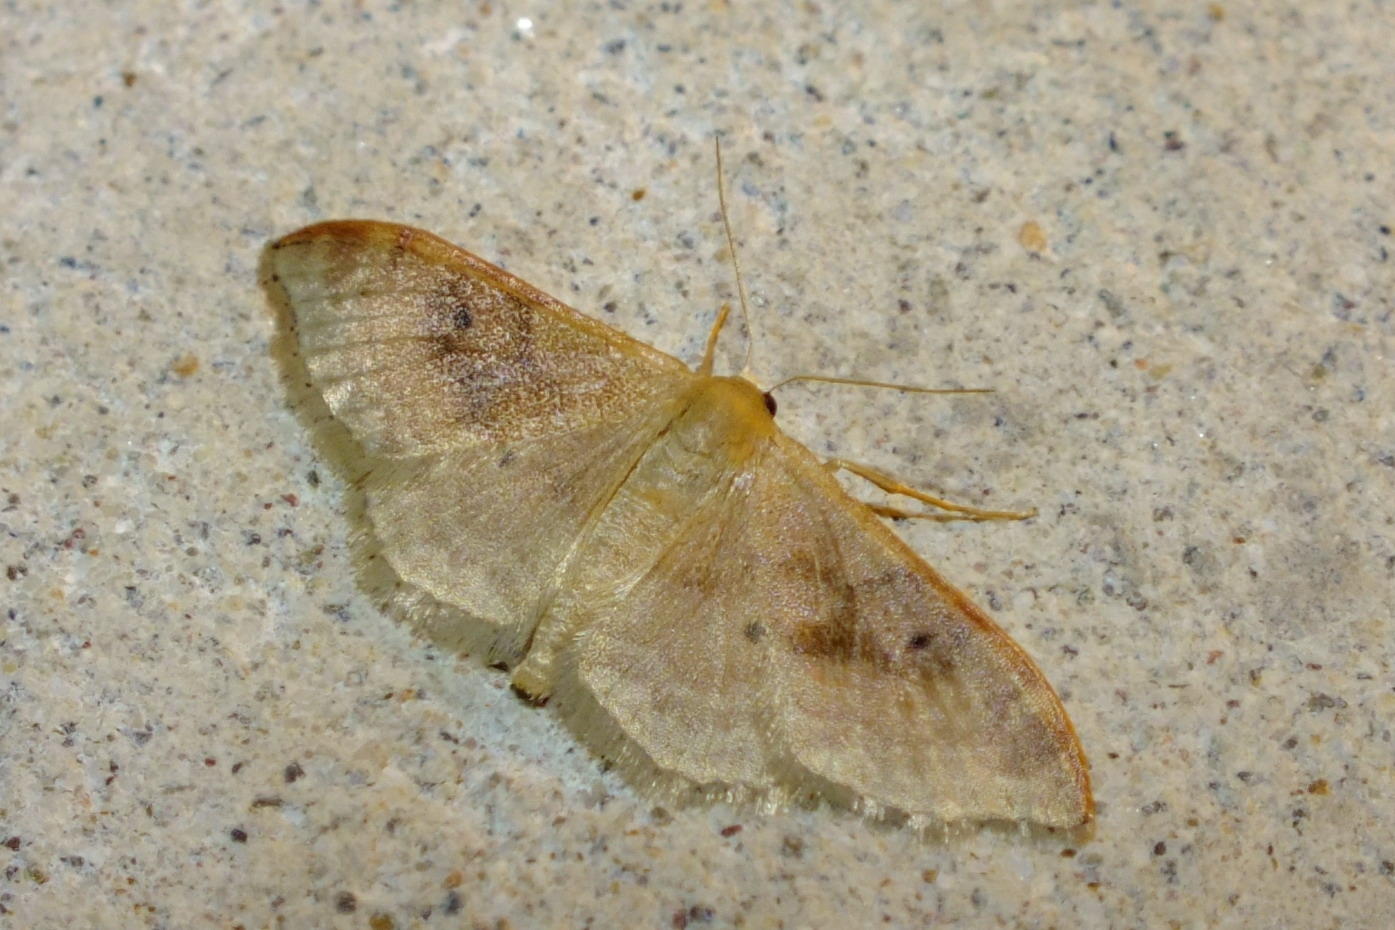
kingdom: Animalia
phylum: Arthropoda
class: Insecta
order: Lepidoptera
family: Geometridae
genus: Idaea
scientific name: Idaea degeneraria
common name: Portland ribbon wave
